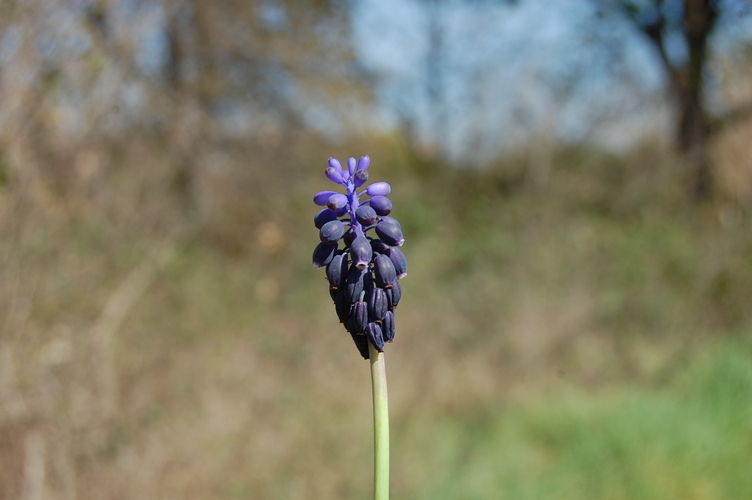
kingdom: Plantae
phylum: Tracheophyta
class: Liliopsida
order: Asparagales
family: Asparagaceae
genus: Muscari
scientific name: Muscari neglectum
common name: Grape-hyacinth
